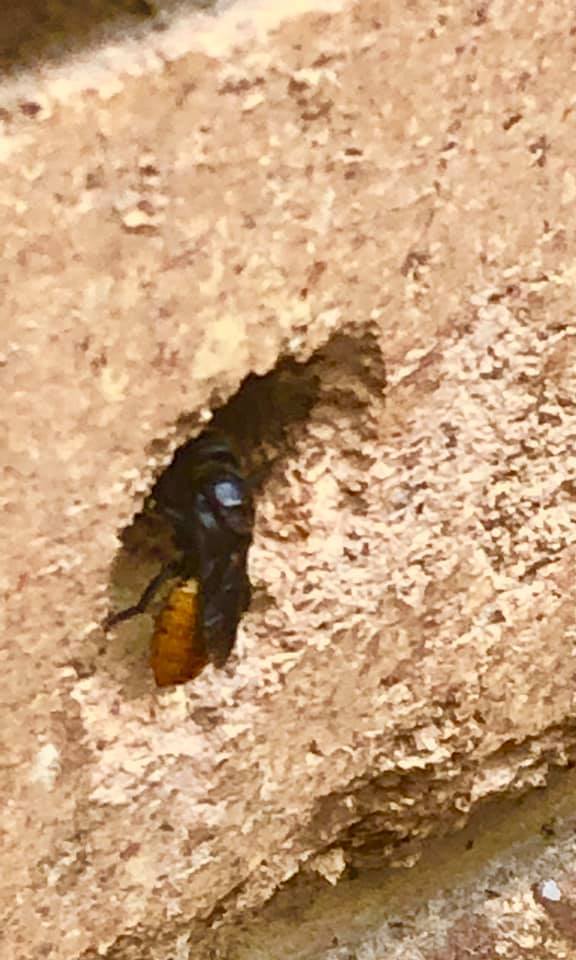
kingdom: Animalia
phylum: Arthropoda
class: Insecta
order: Hymenoptera
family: Megachilidae
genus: Megachile
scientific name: Megachile mystaceana
